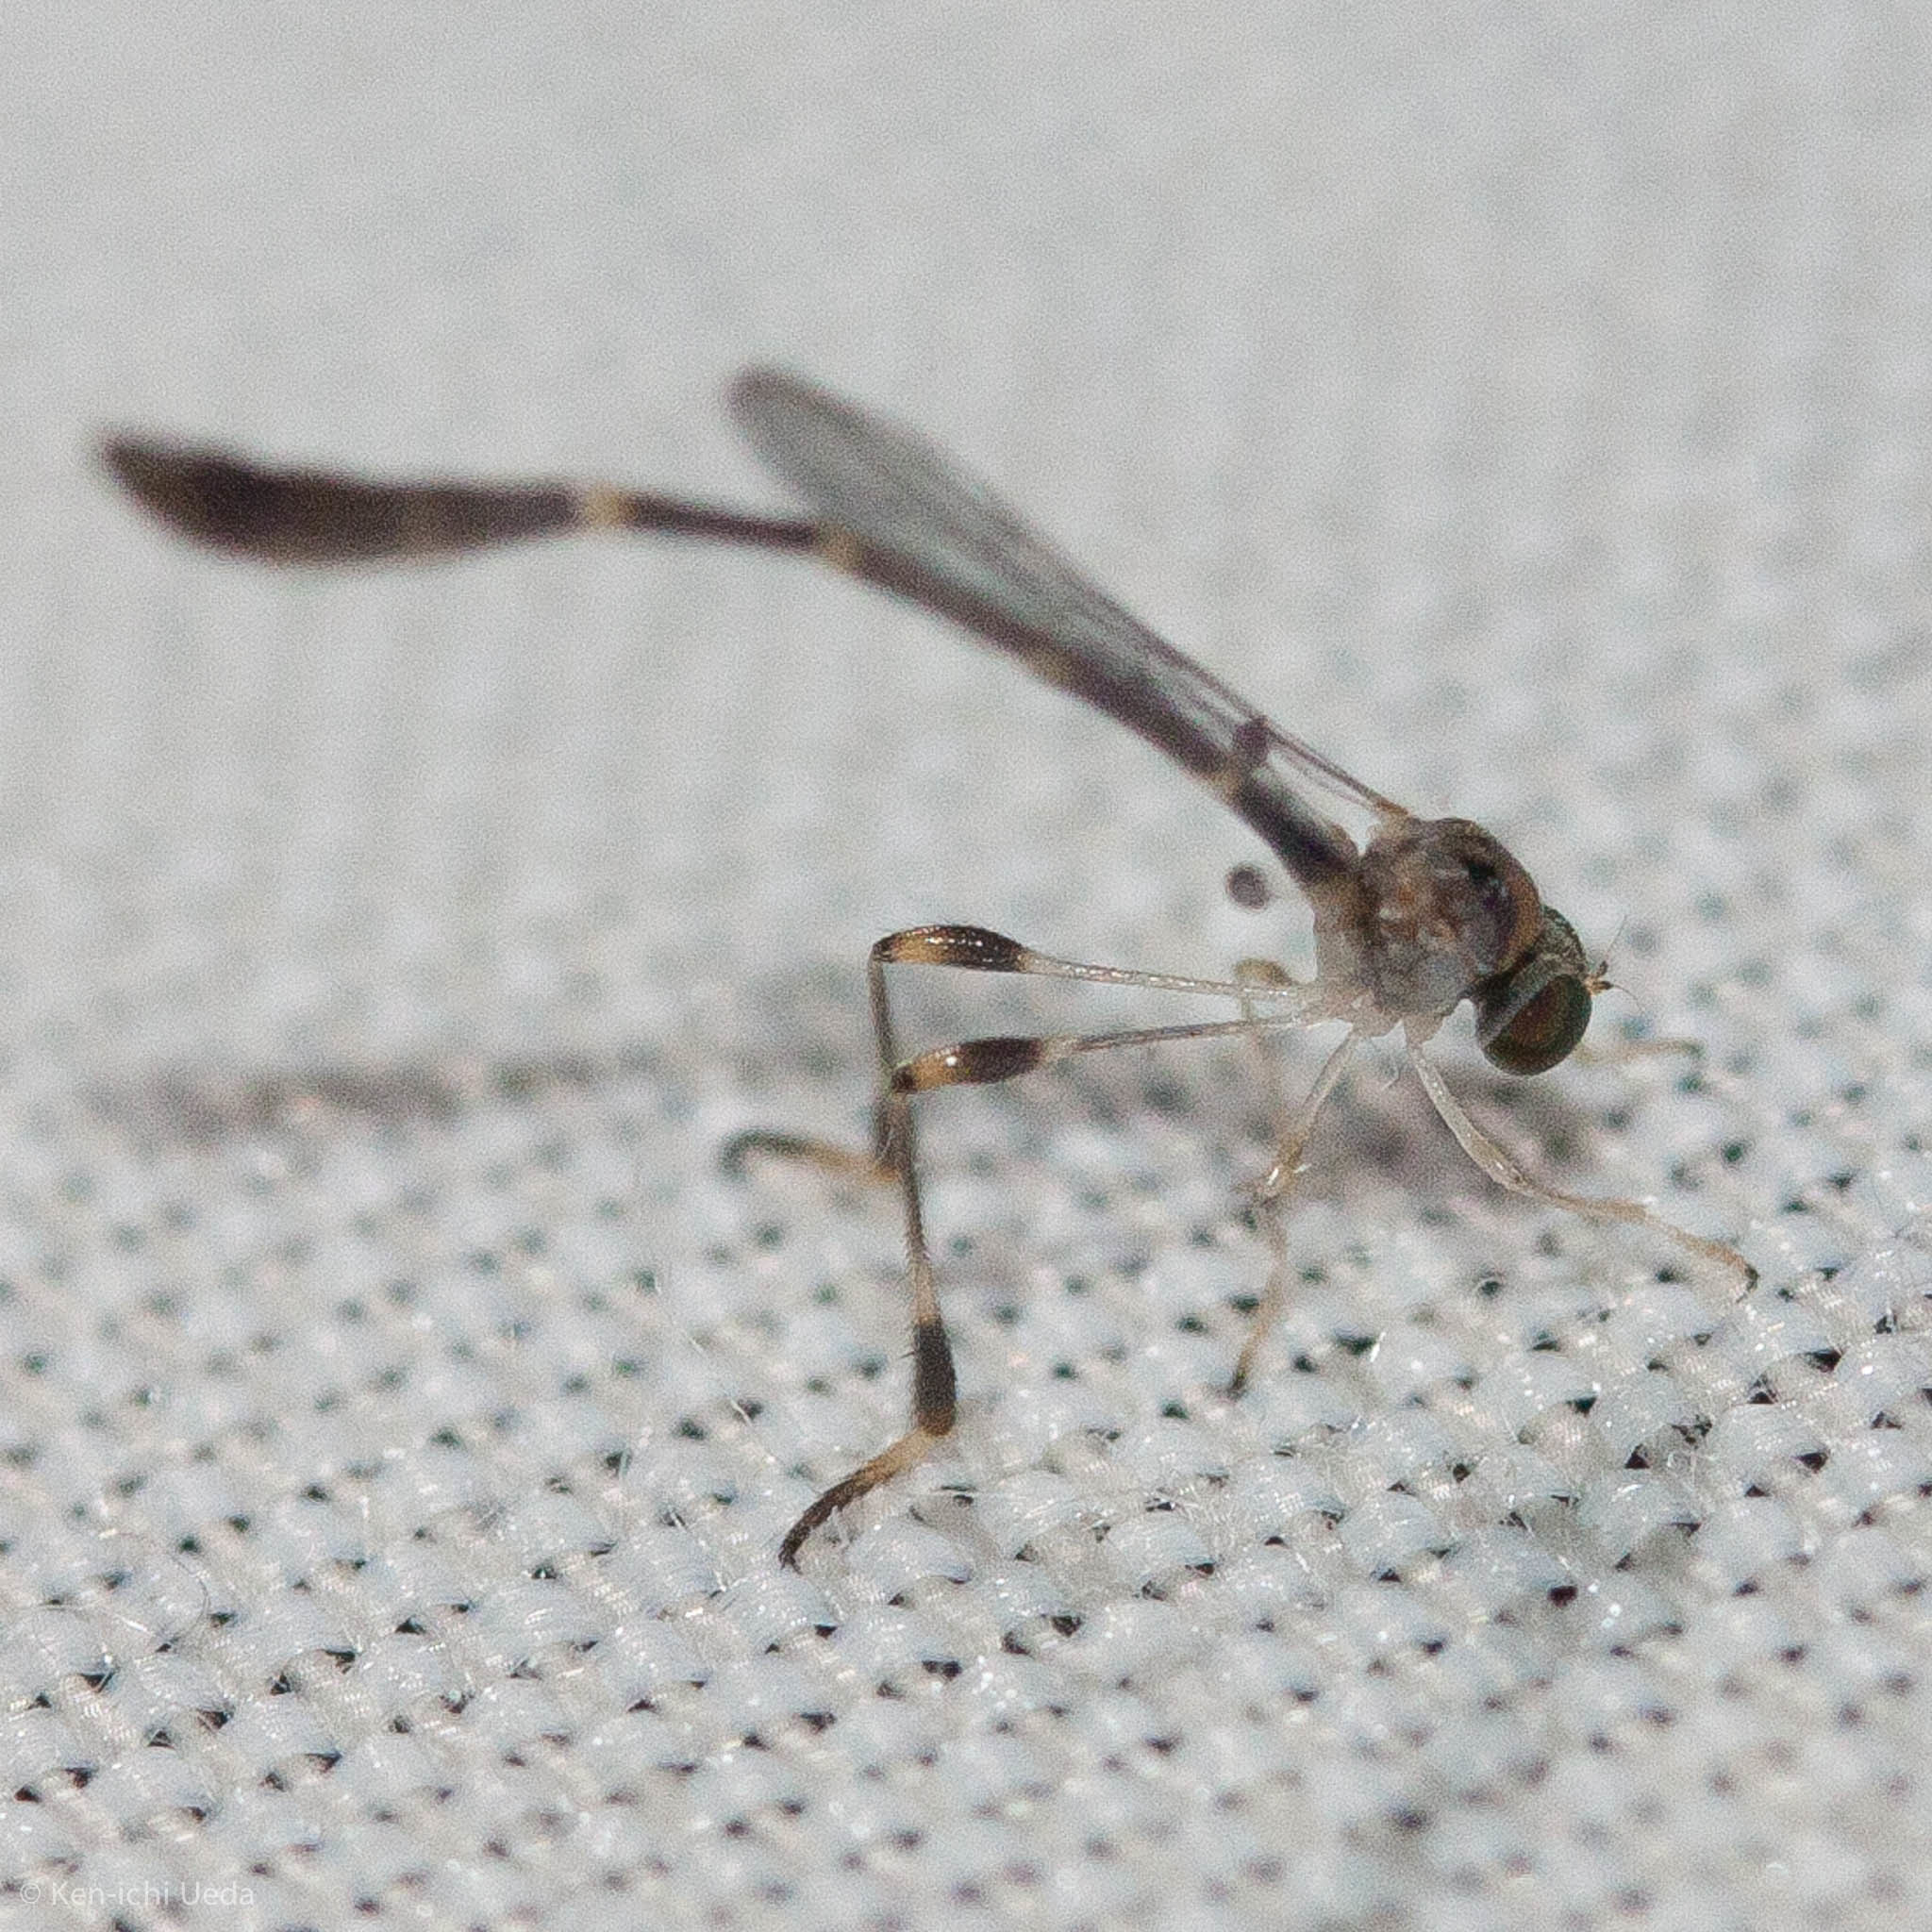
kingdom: Animalia
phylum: Arthropoda
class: Insecta
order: Diptera
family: Asilidae
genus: Leptopteromyia
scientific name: Leptopteromyia americana
